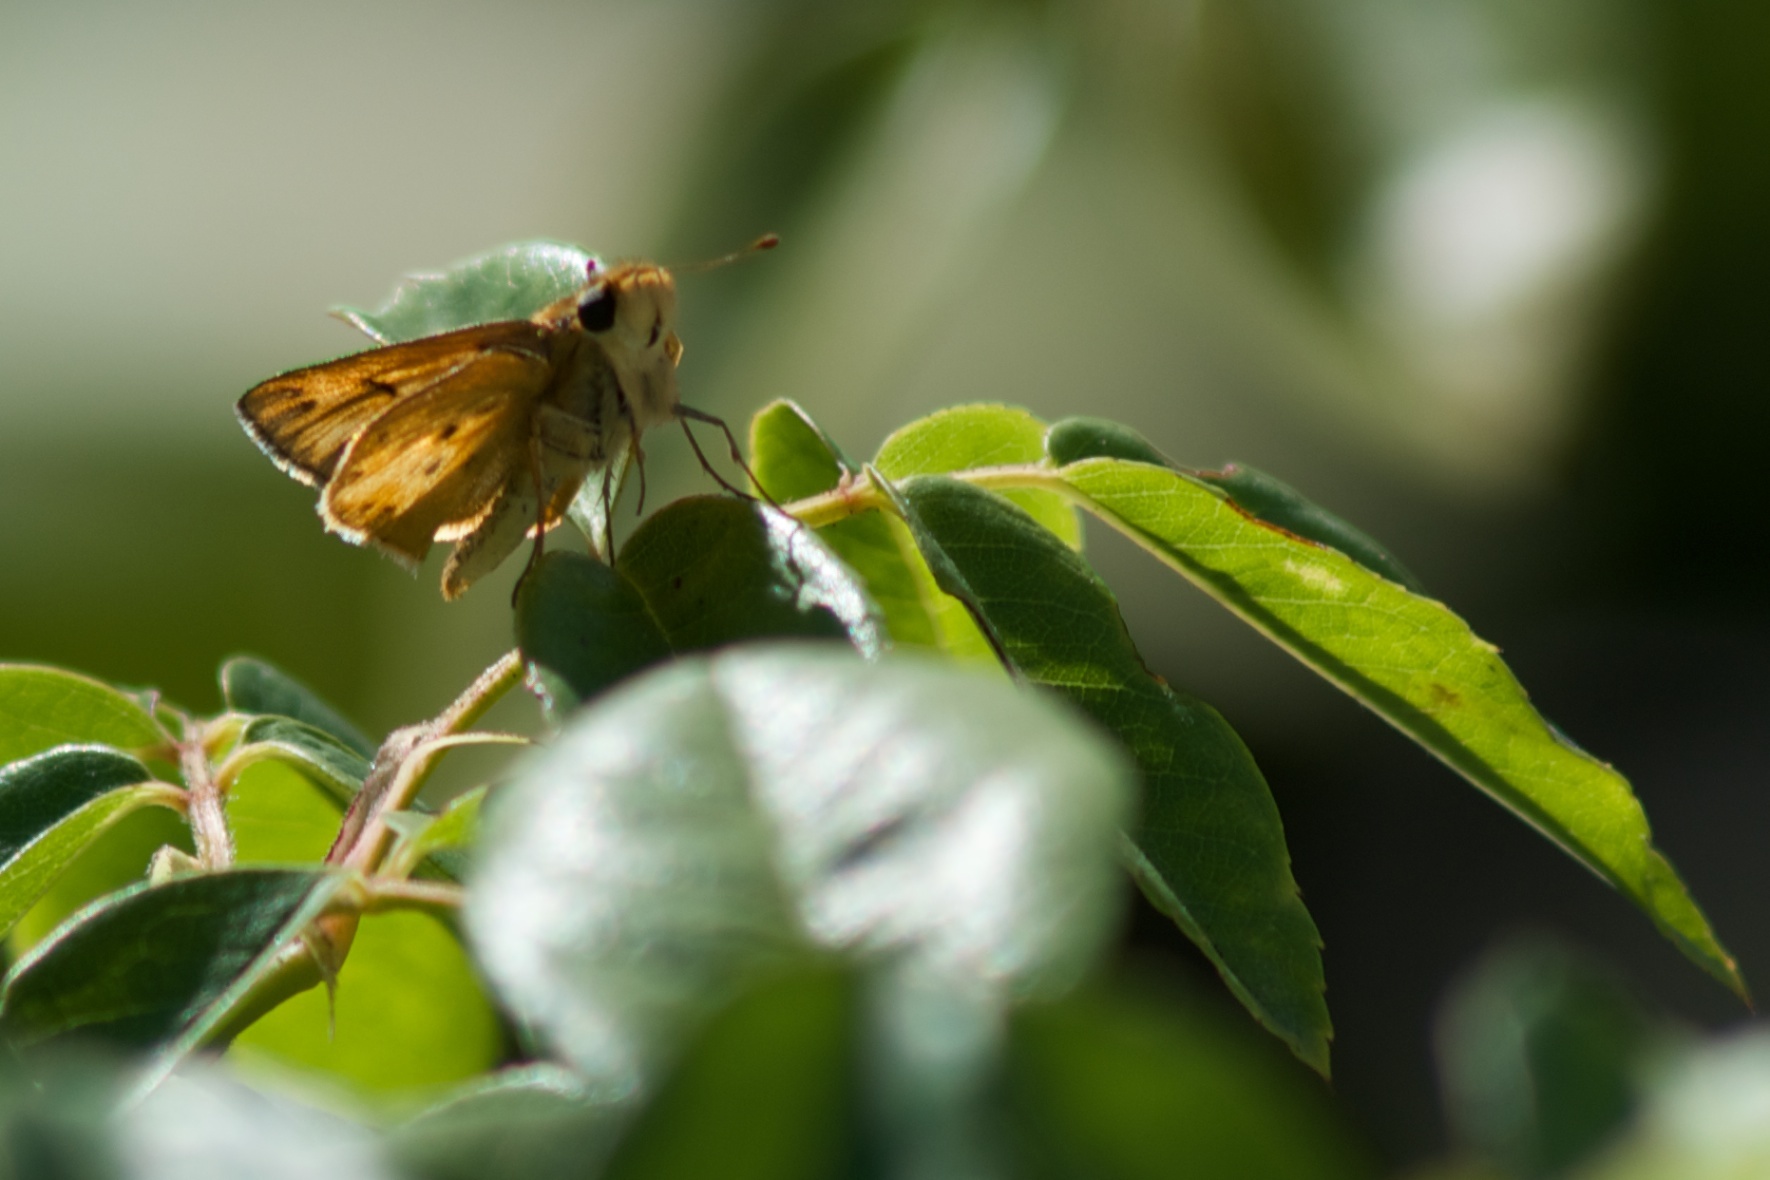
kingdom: Animalia
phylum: Arthropoda
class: Insecta
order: Lepidoptera
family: Hesperiidae
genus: Hylephila
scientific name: Hylephila phyleus
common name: Fiery skipper
